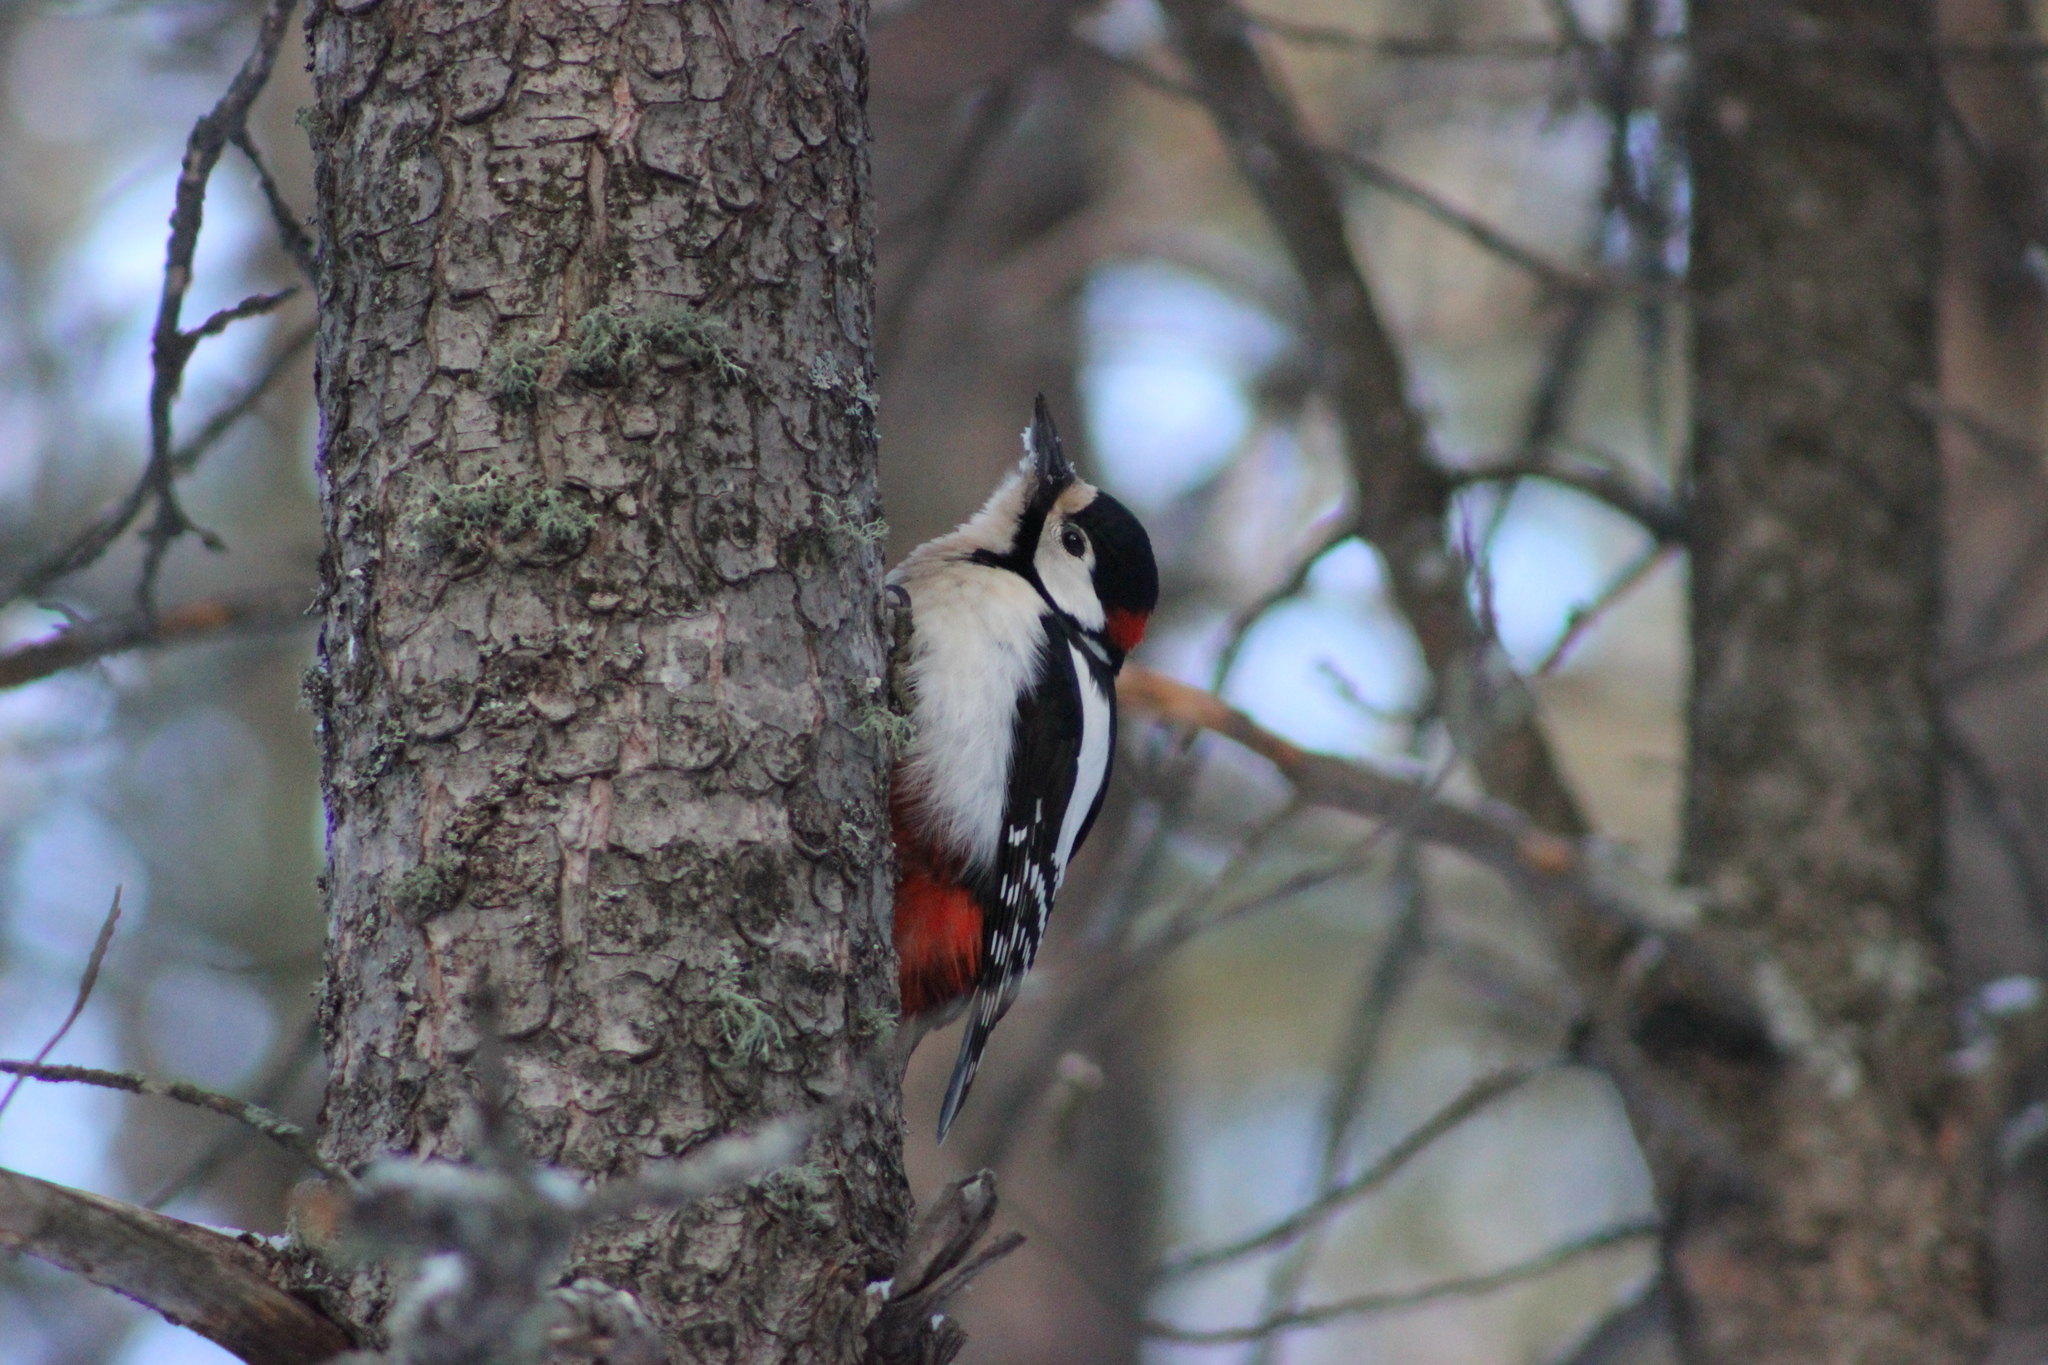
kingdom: Animalia
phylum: Chordata
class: Aves
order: Piciformes
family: Picidae
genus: Dendrocopos
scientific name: Dendrocopos major
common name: Great spotted woodpecker
